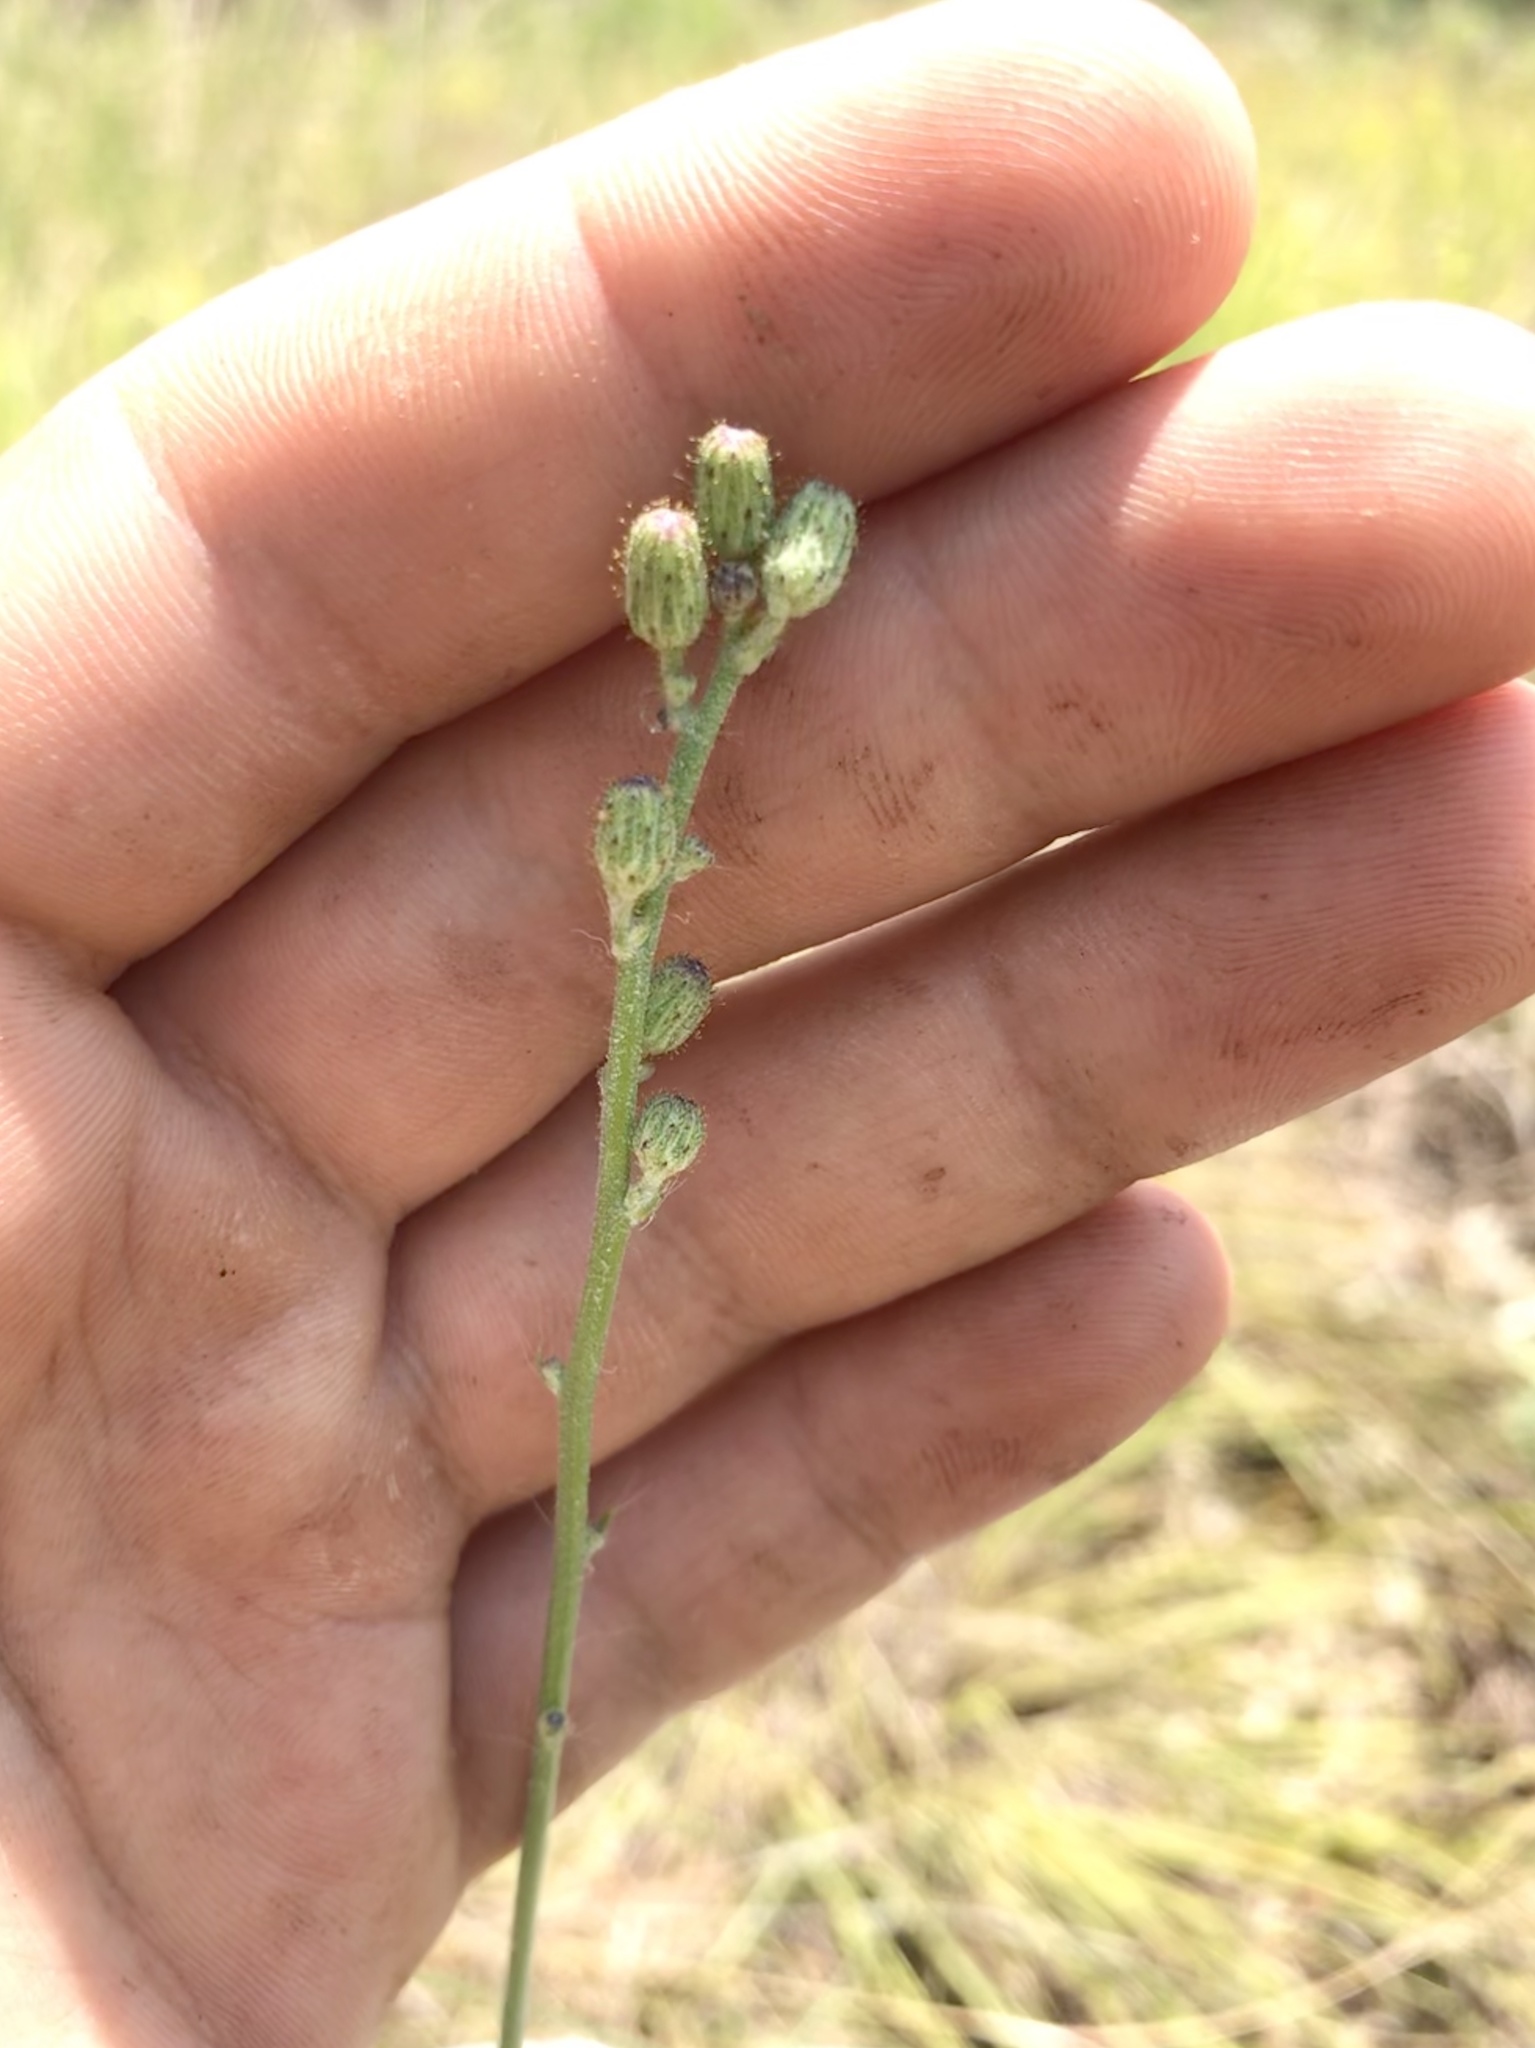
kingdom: Plantae
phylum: Tracheophyta
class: Magnoliopsida
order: Asterales
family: Asteraceae
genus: Hieracium
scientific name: Hieracium longipilum
